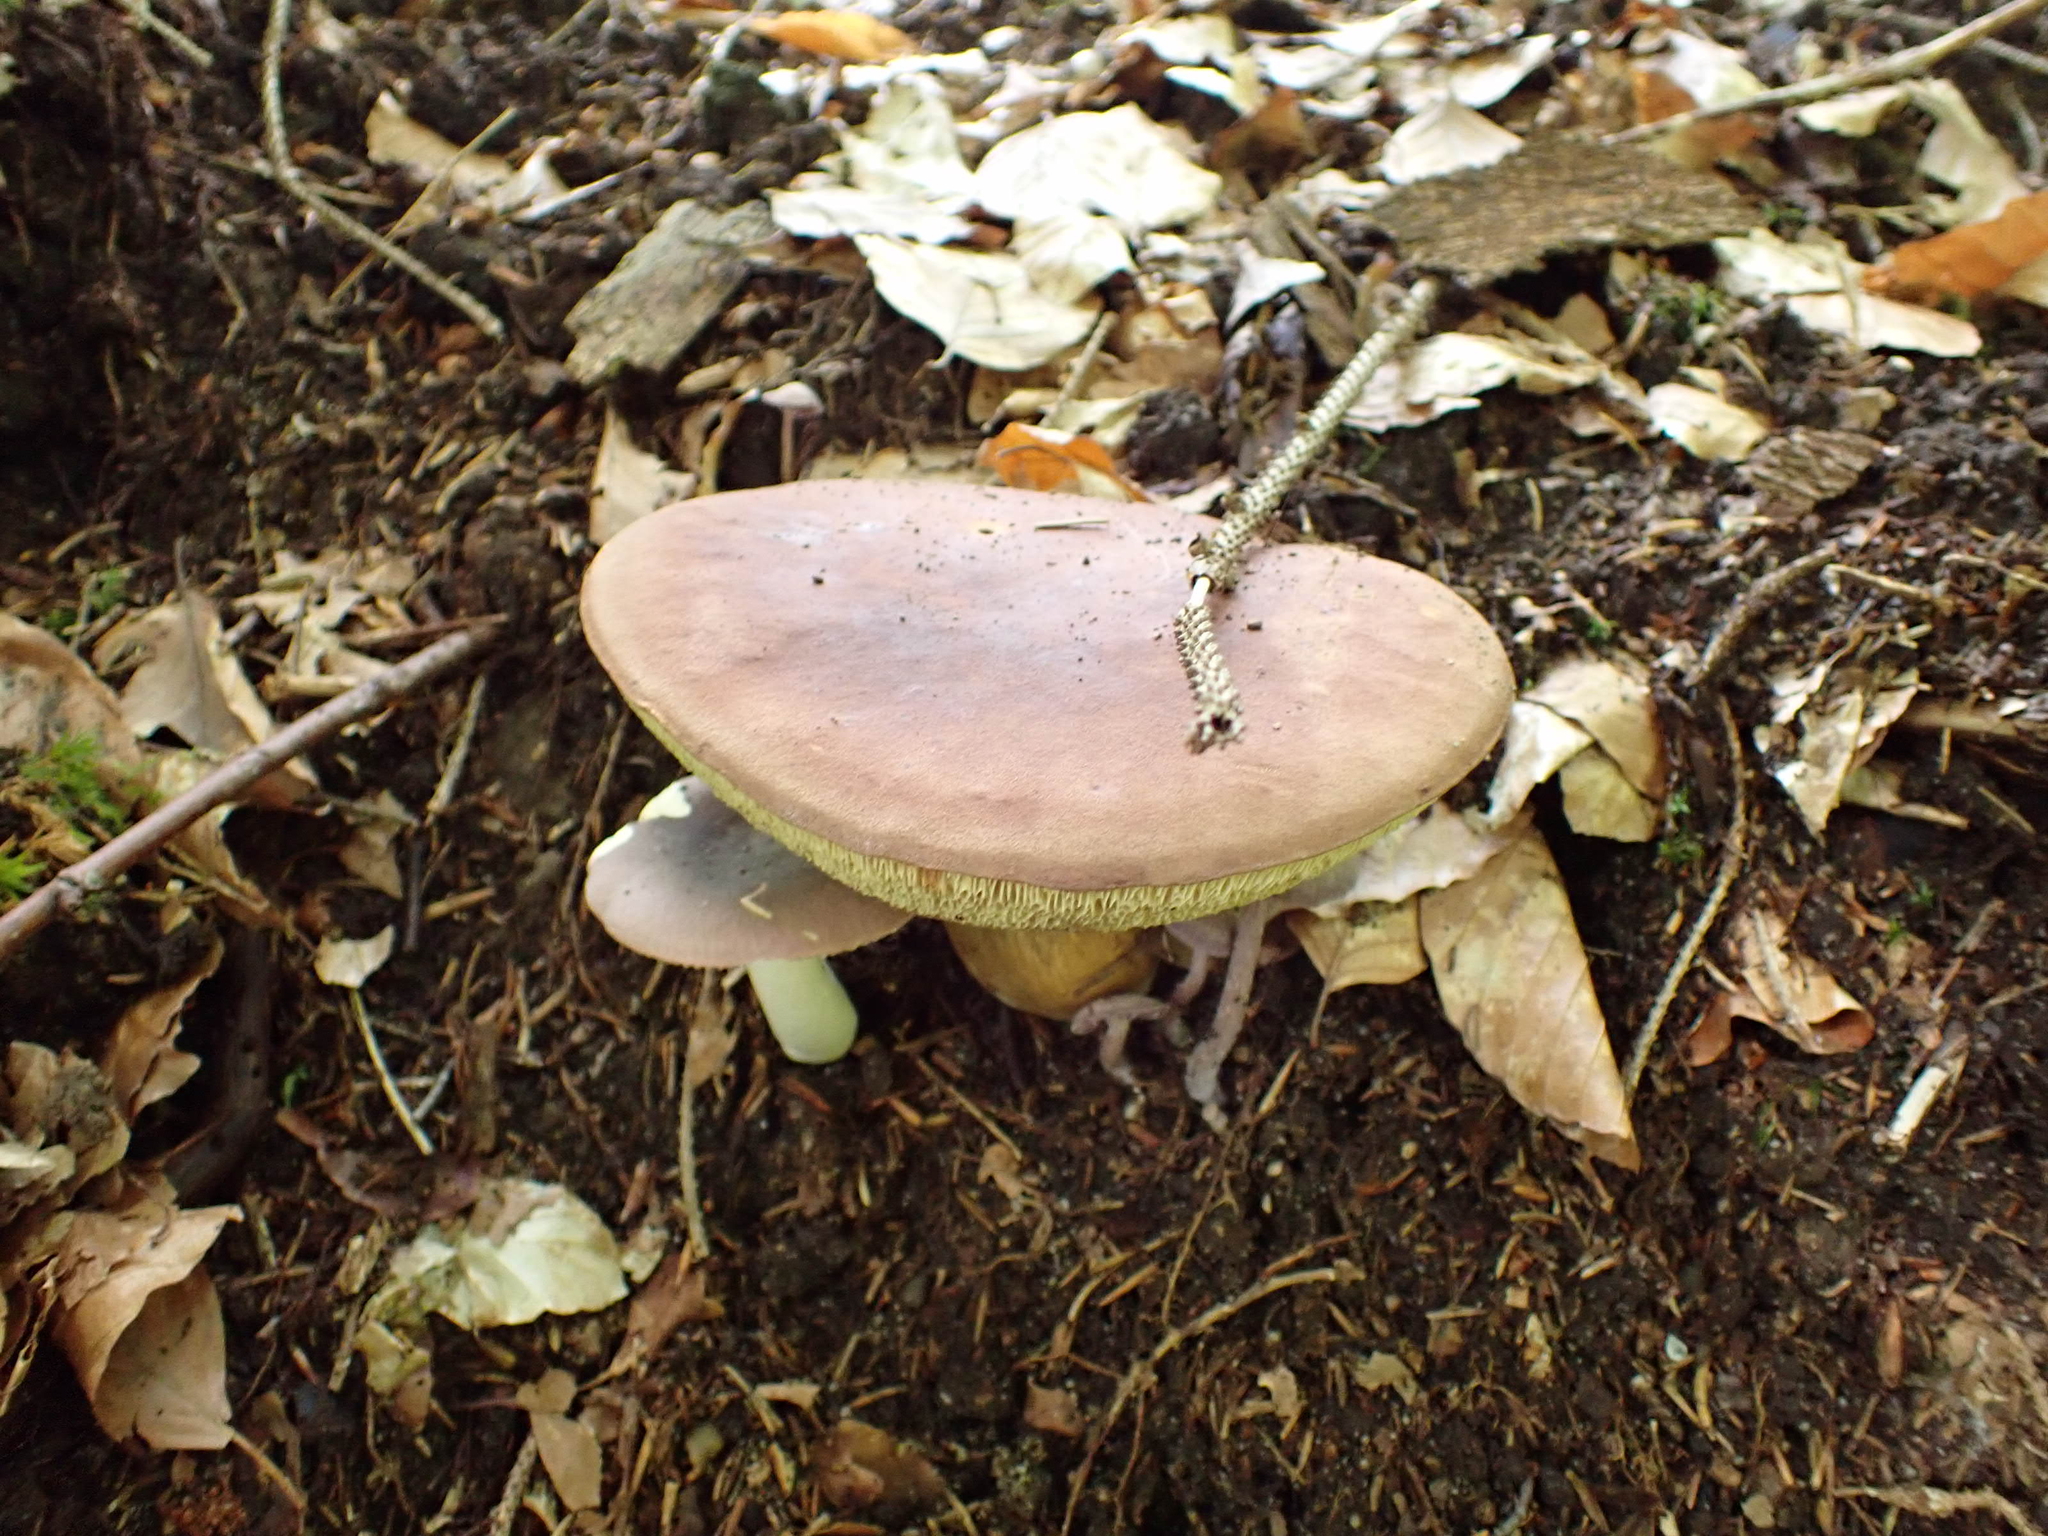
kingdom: Fungi
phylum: Basidiomycota
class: Agaricomycetes
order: Boletales
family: Boletaceae
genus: Imleria
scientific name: Imleria badia
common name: Bay bolete
